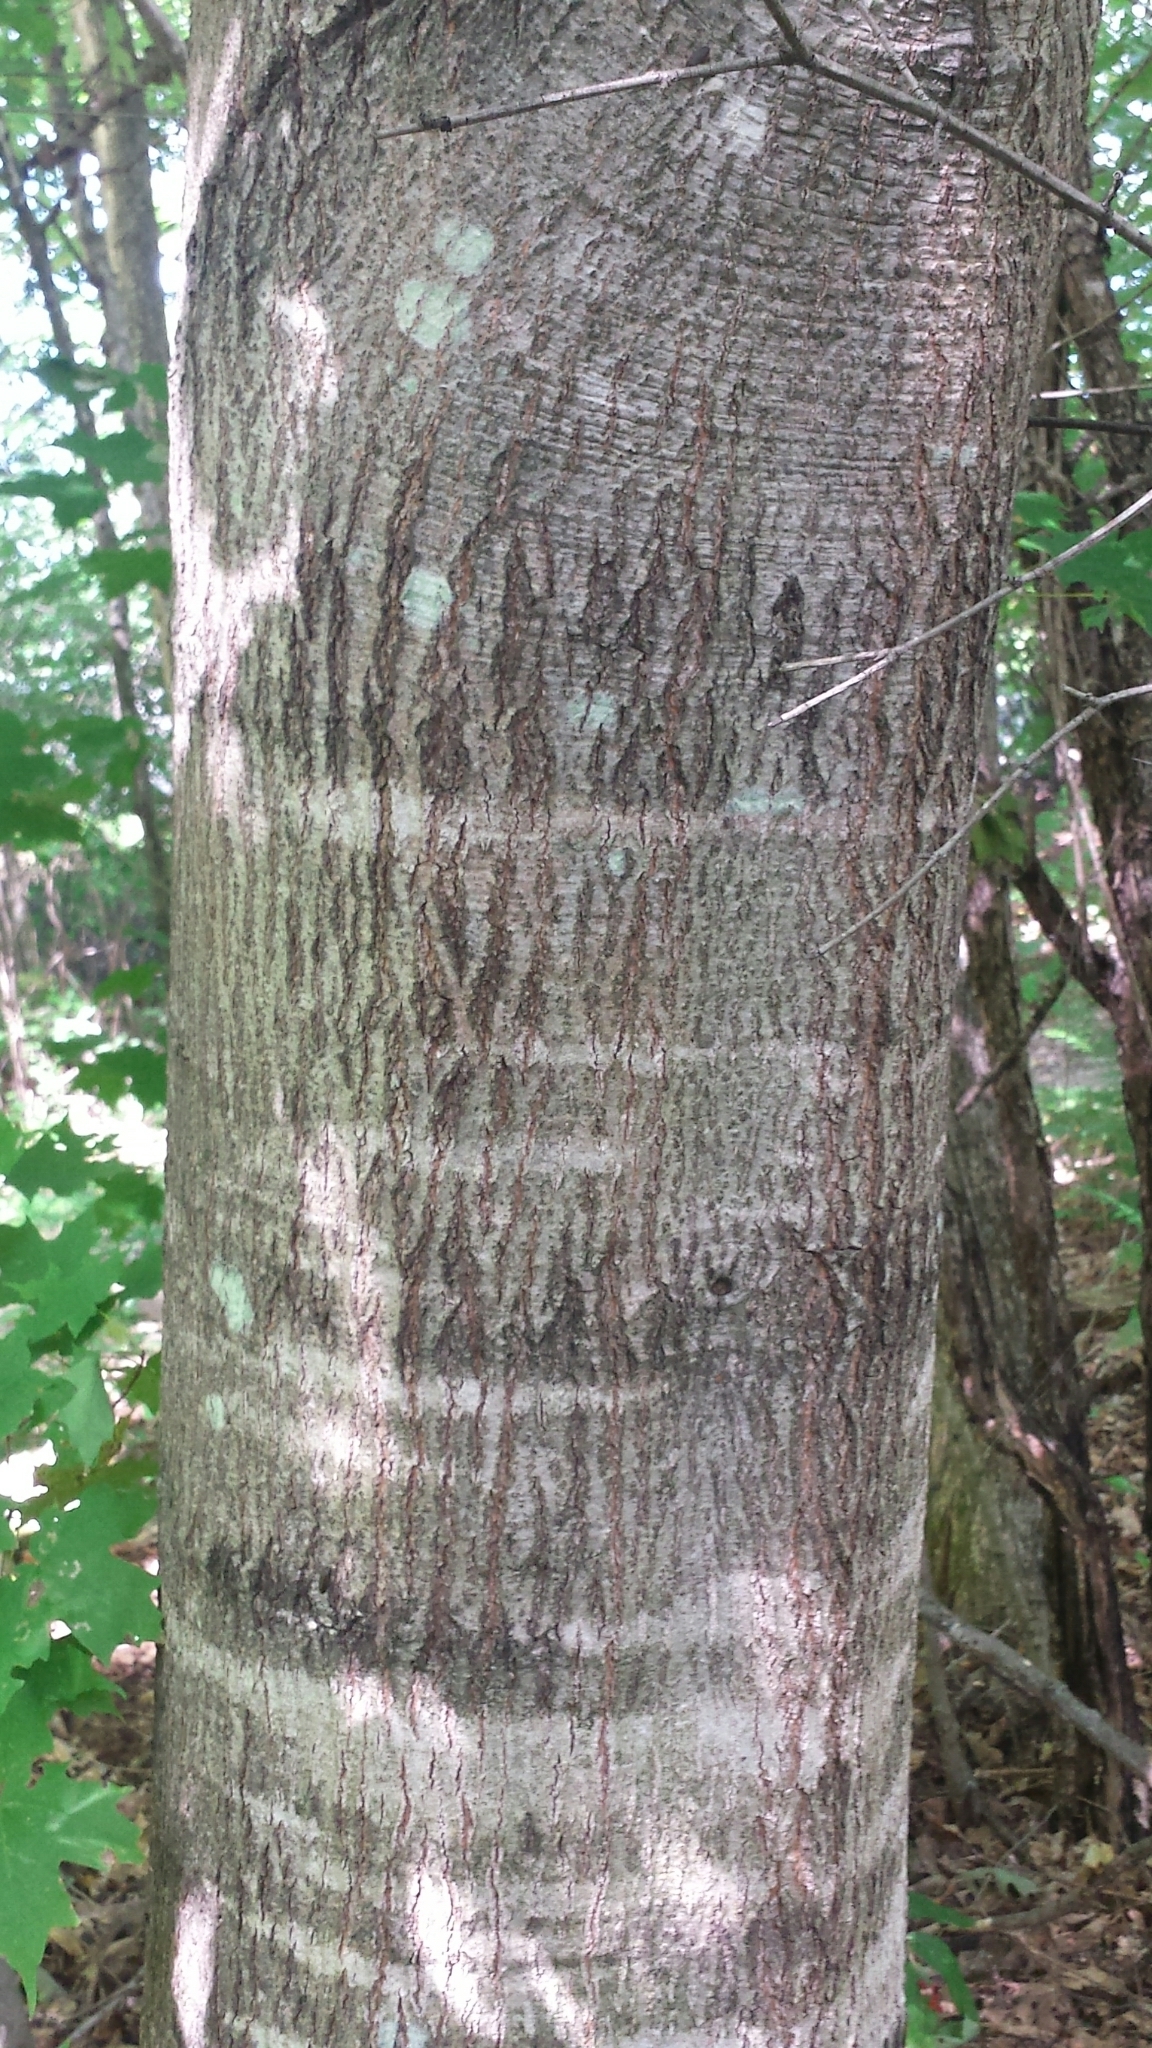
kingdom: Plantae
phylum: Tracheophyta
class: Magnoliopsida
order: Fagales
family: Fagaceae
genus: Quercus
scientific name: Quercus rubra
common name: Red oak
